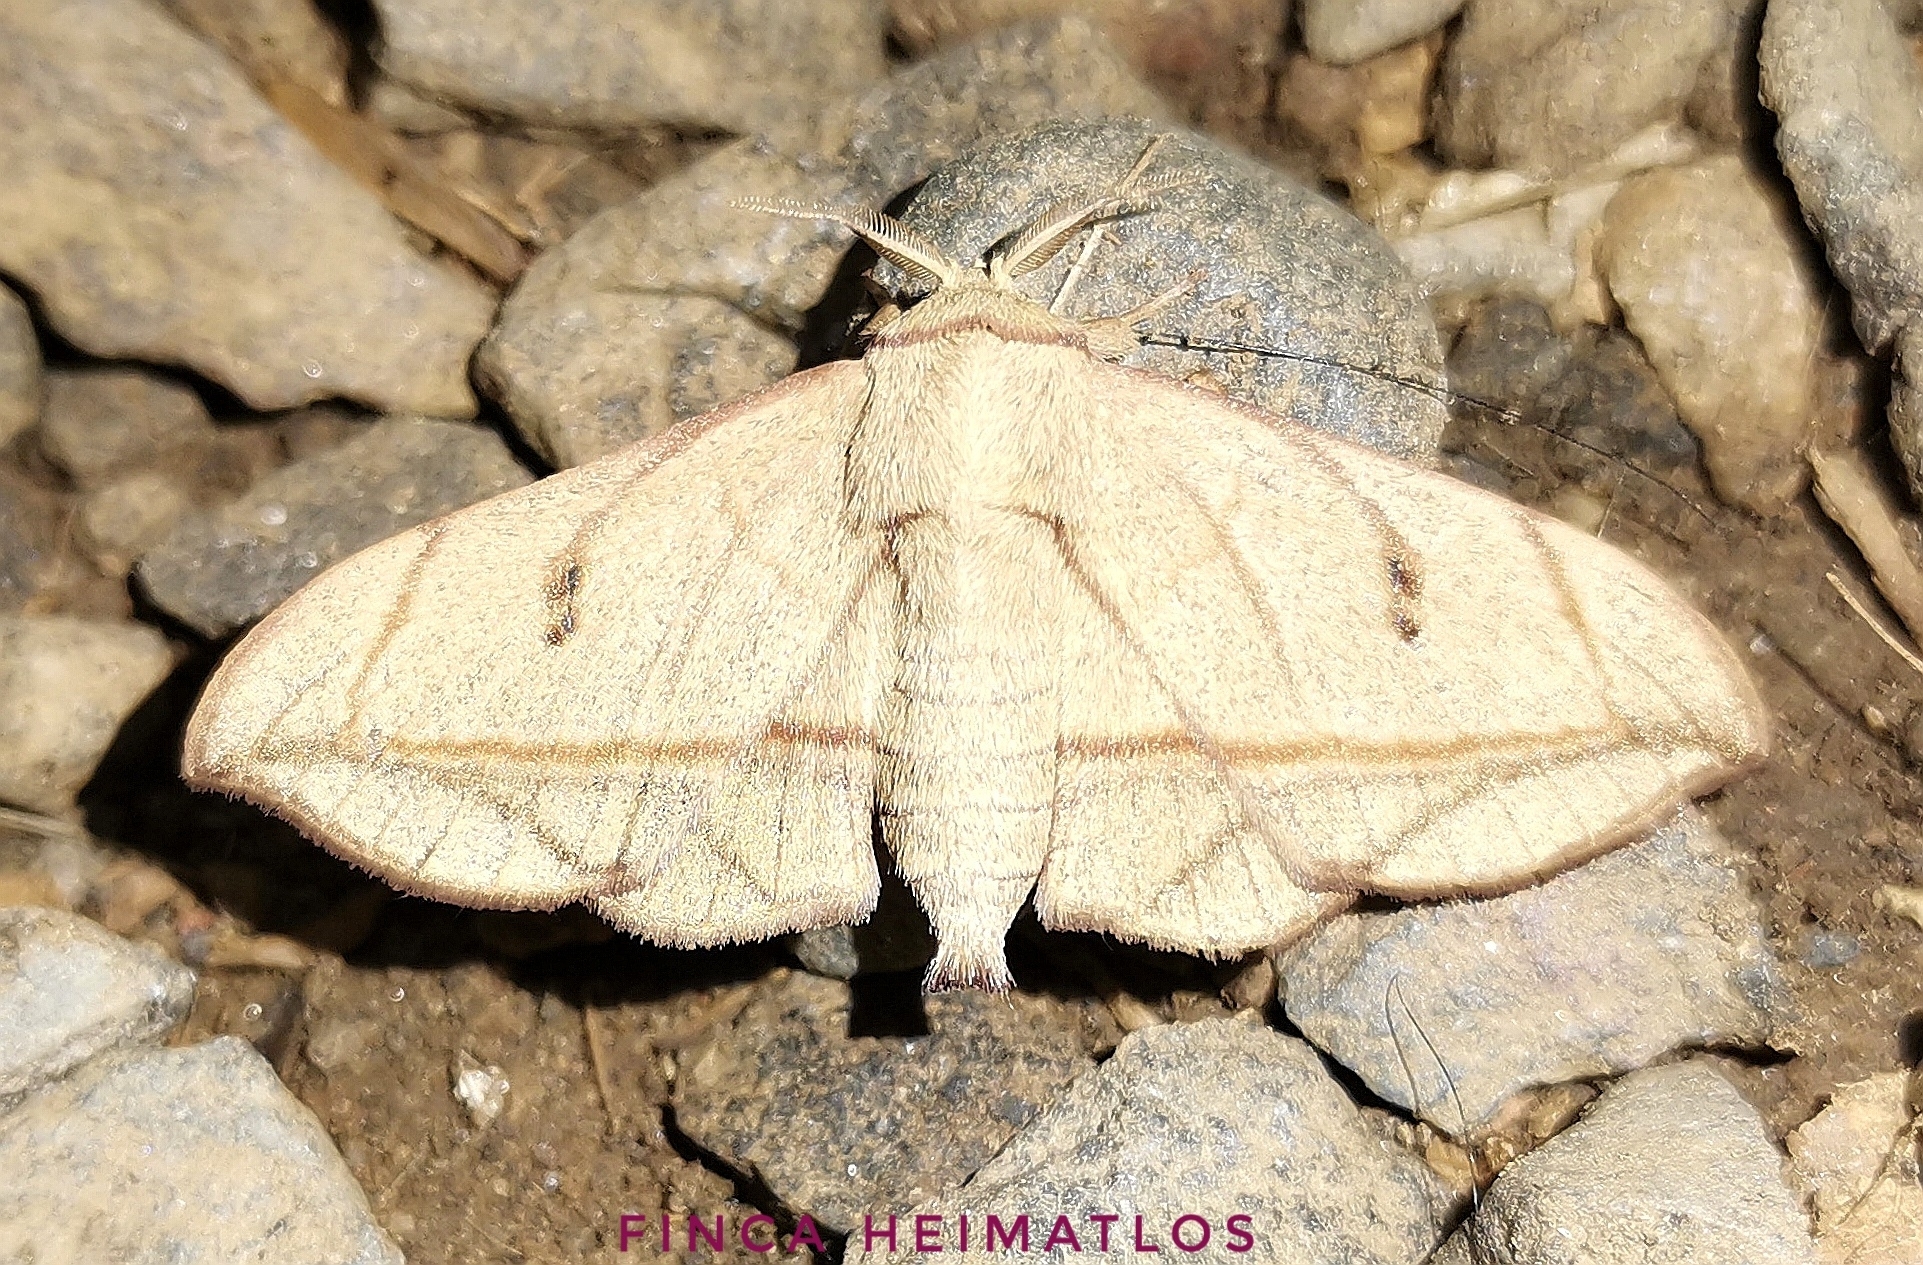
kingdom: Animalia
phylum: Arthropoda
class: Insecta
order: Lepidoptera
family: Mimallonidae
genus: Cicinnus
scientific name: Cicinnus forbesi
